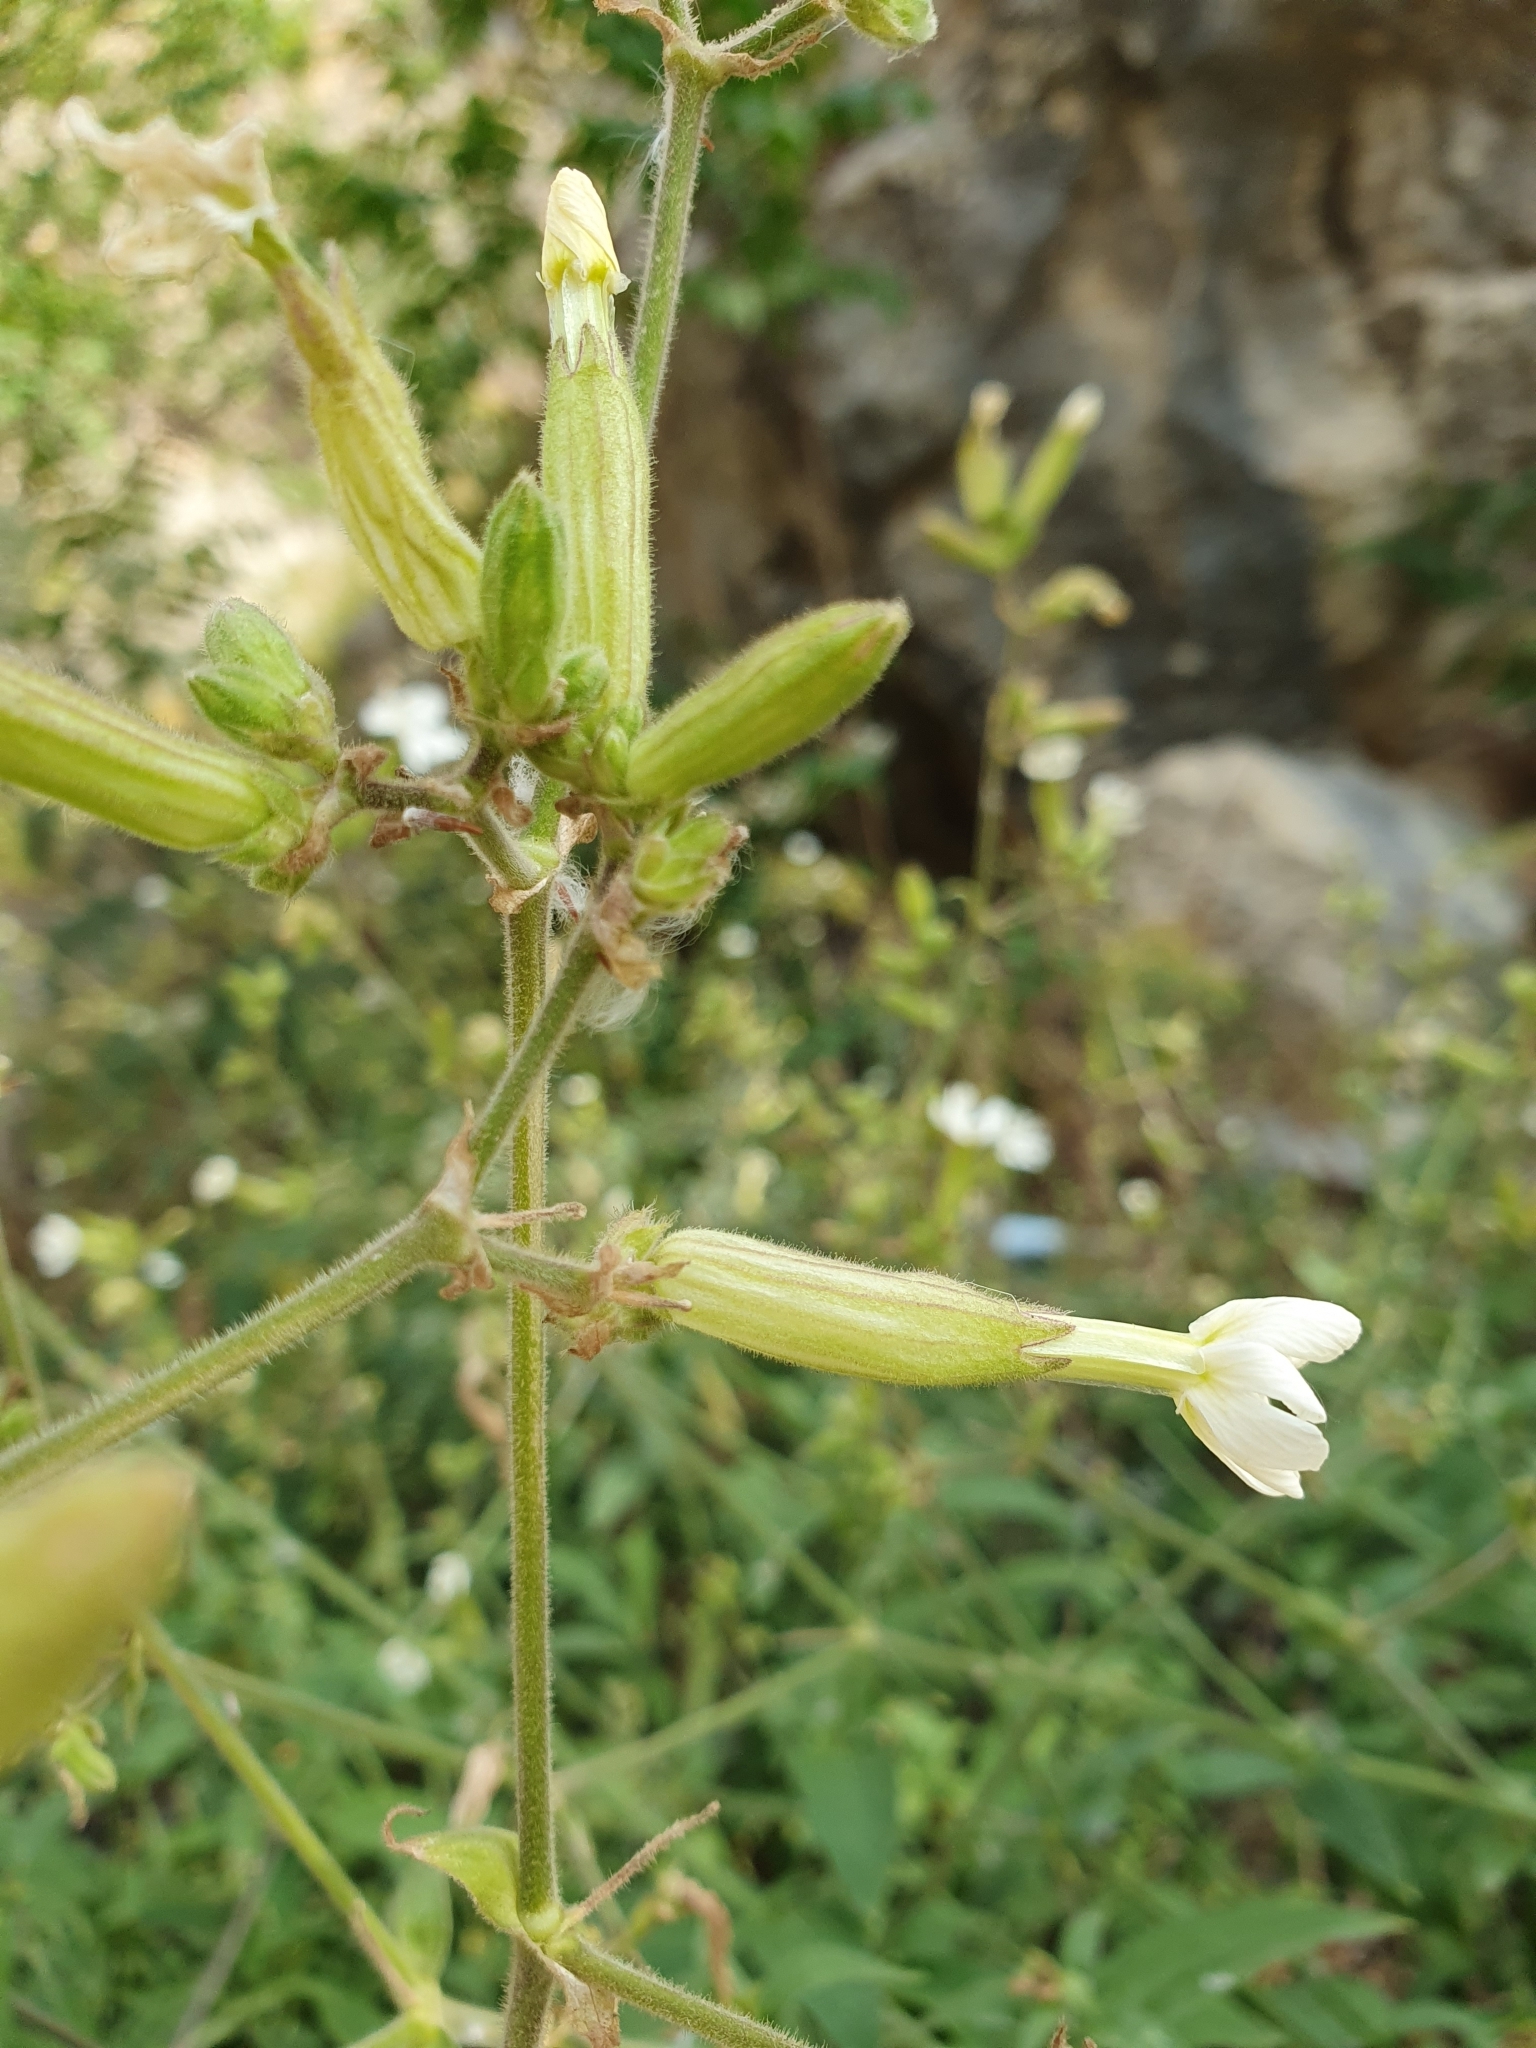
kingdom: Plantae
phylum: Tracheophyta
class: Magnoliopsida
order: Caryophyllales
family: Caryophyllaceae
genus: Silene
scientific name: Silene latifolia
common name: White campion
